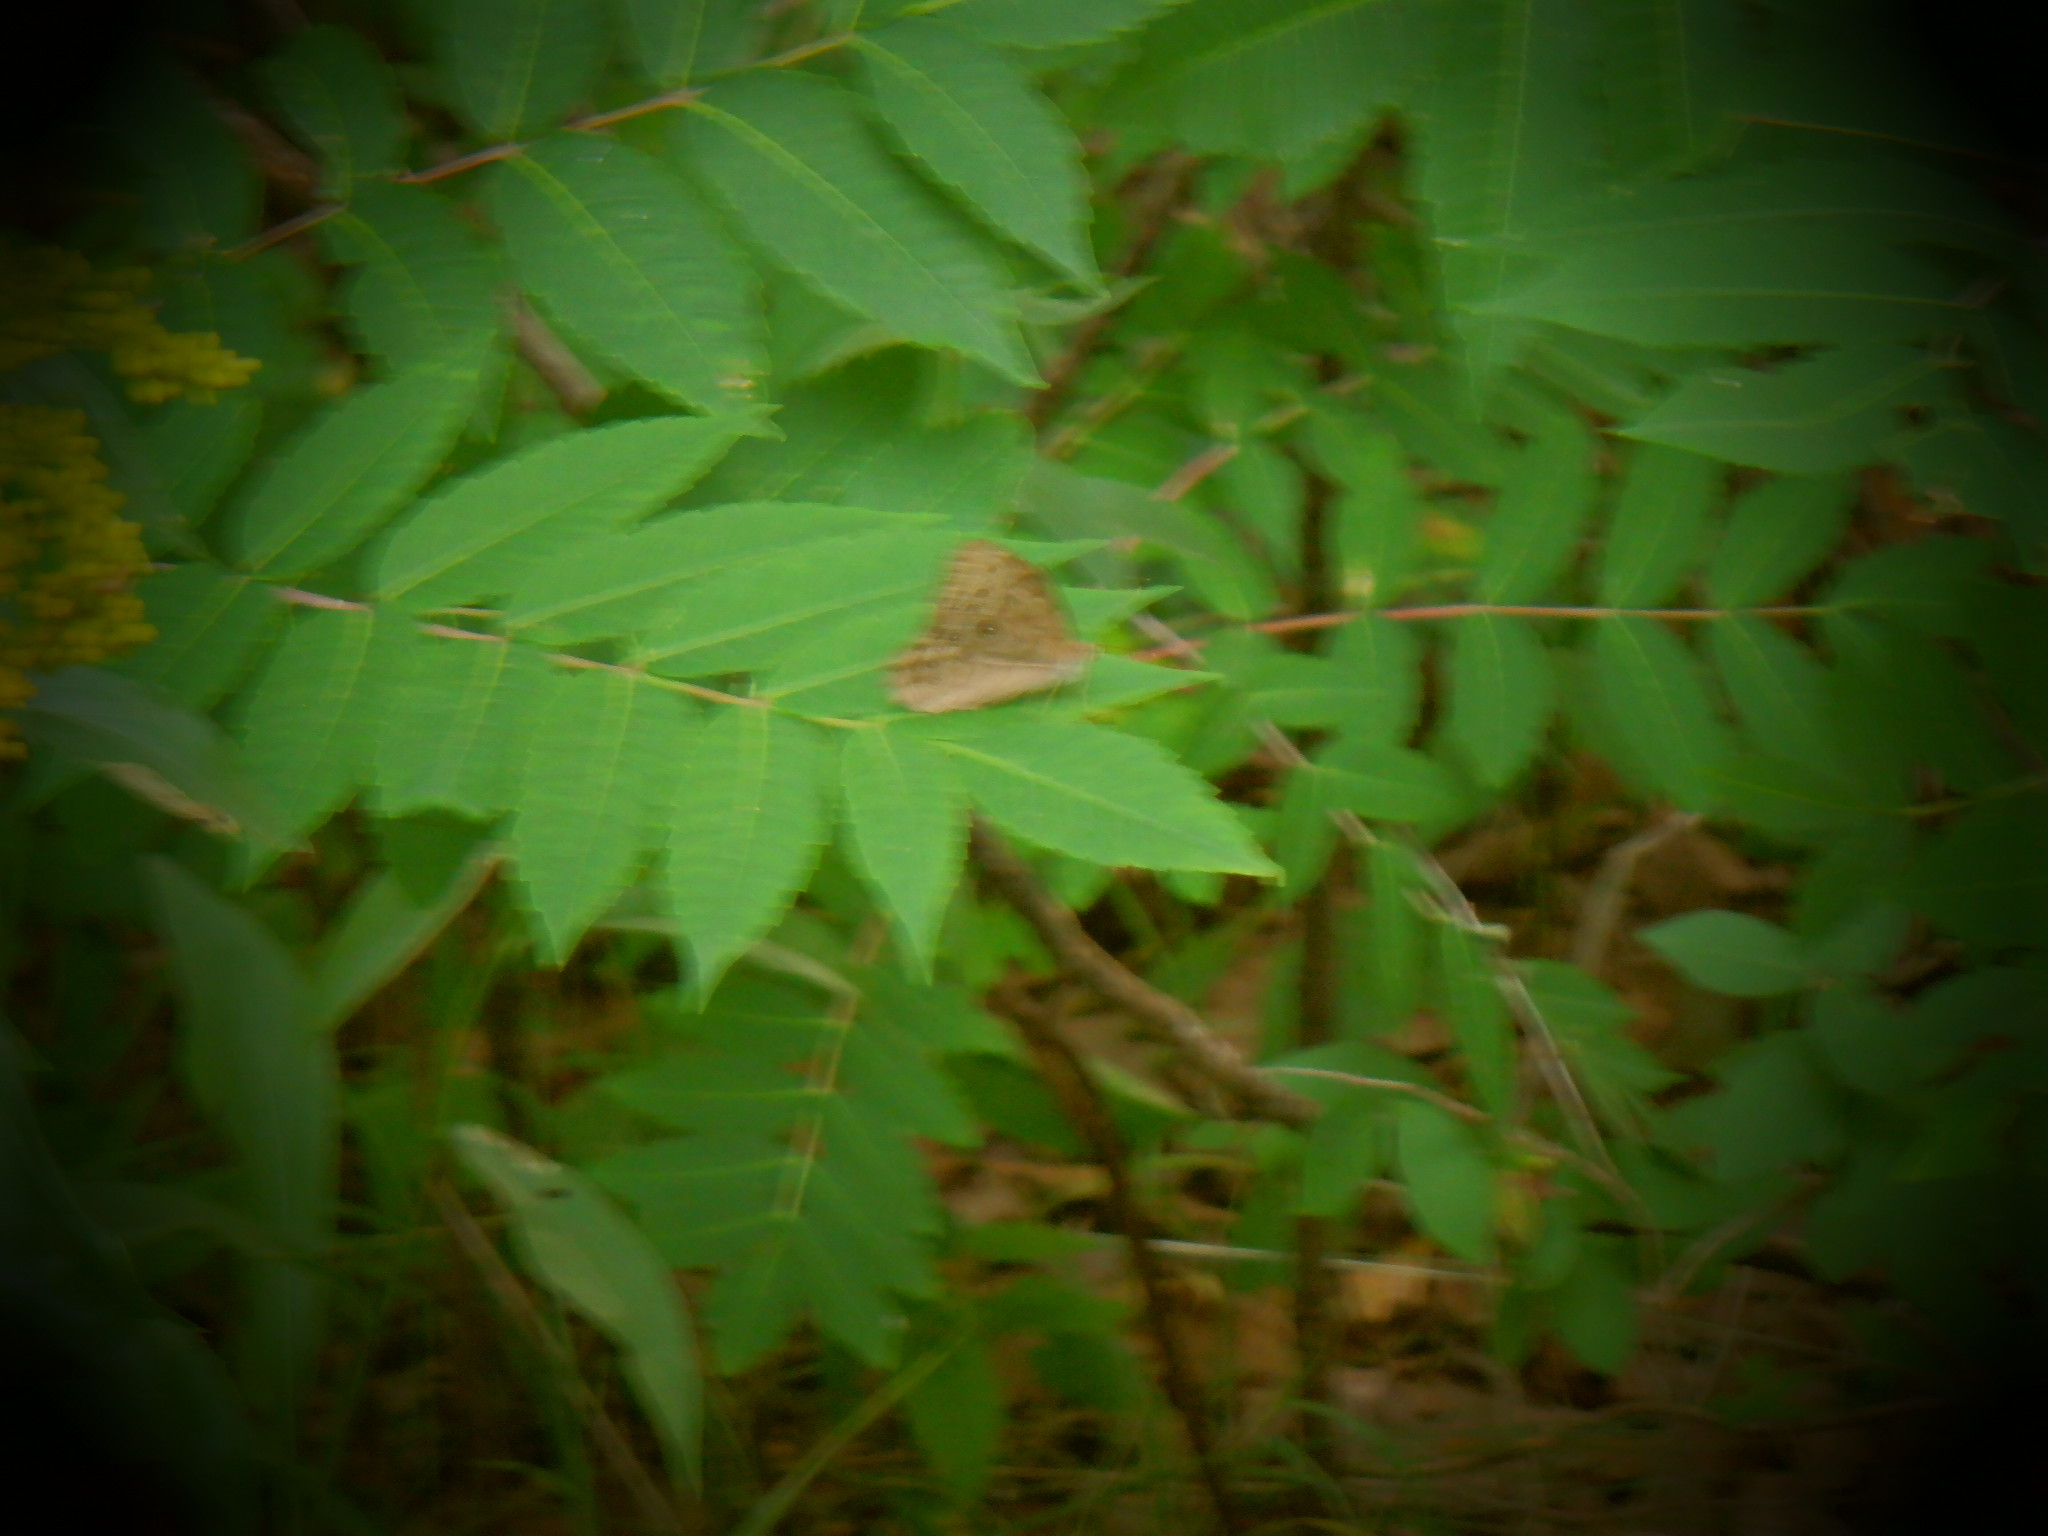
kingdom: Animalia
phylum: Arthropoda
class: Insecta
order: Lepidoptera
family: Nymphalidae
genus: Lethe
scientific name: Lethe anthedon
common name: Northern pearly-eye
